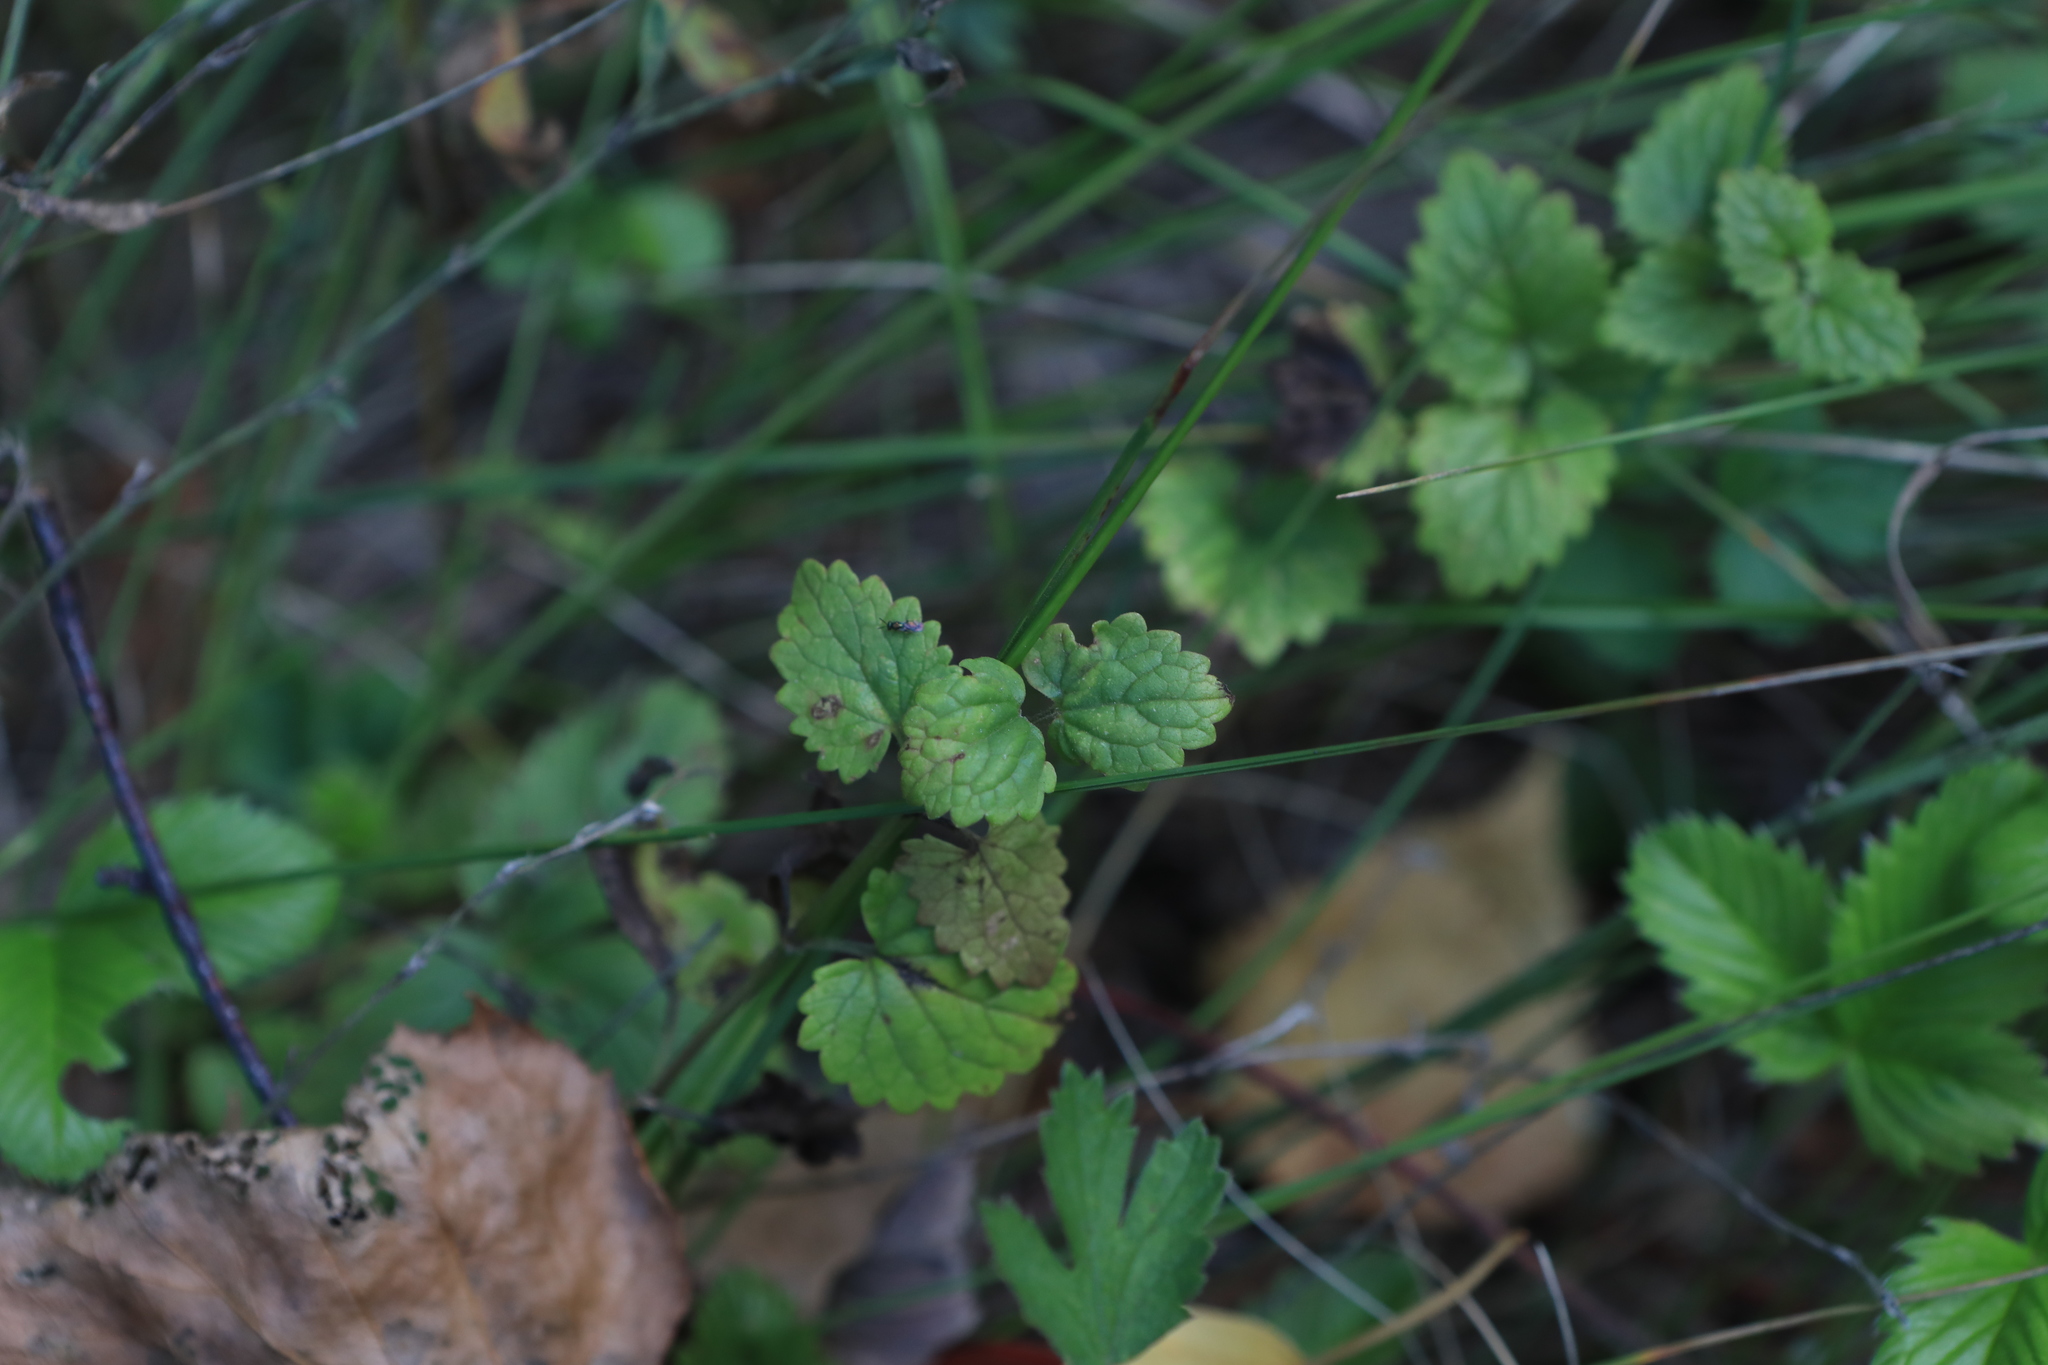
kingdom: Plantae
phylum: Tracheophyta
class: Magnoliopsida
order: Lamiales
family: Lamiaceae
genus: Glechoma
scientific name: Glechoma hederacea
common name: Ground ivy
